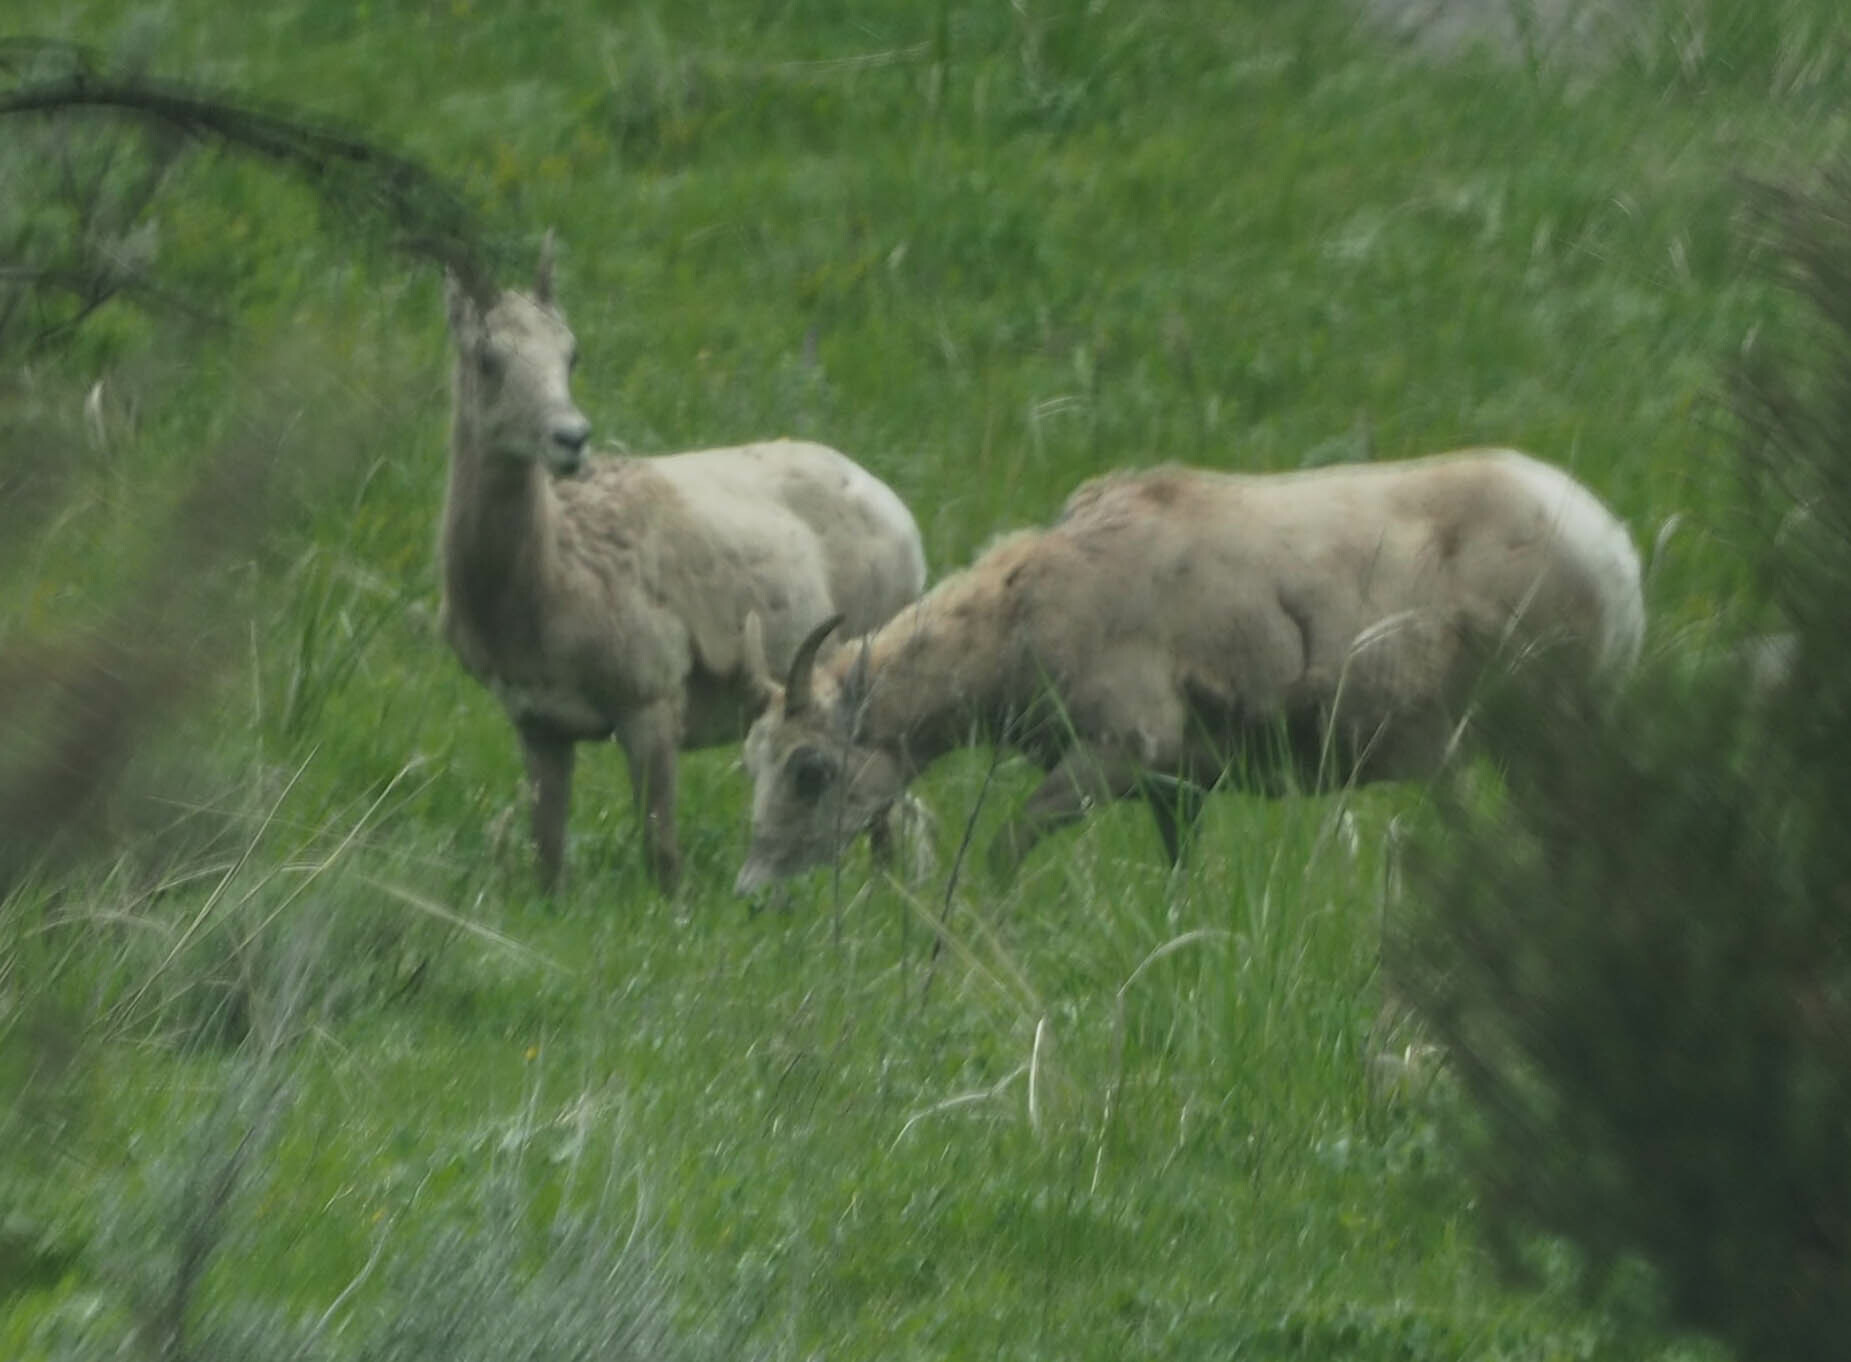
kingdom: Animalia
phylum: Chordata
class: Mammalia
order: Artiodactyla
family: Bovidae
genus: Ovis
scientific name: Ovis canadensis
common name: Bighorn sheep
